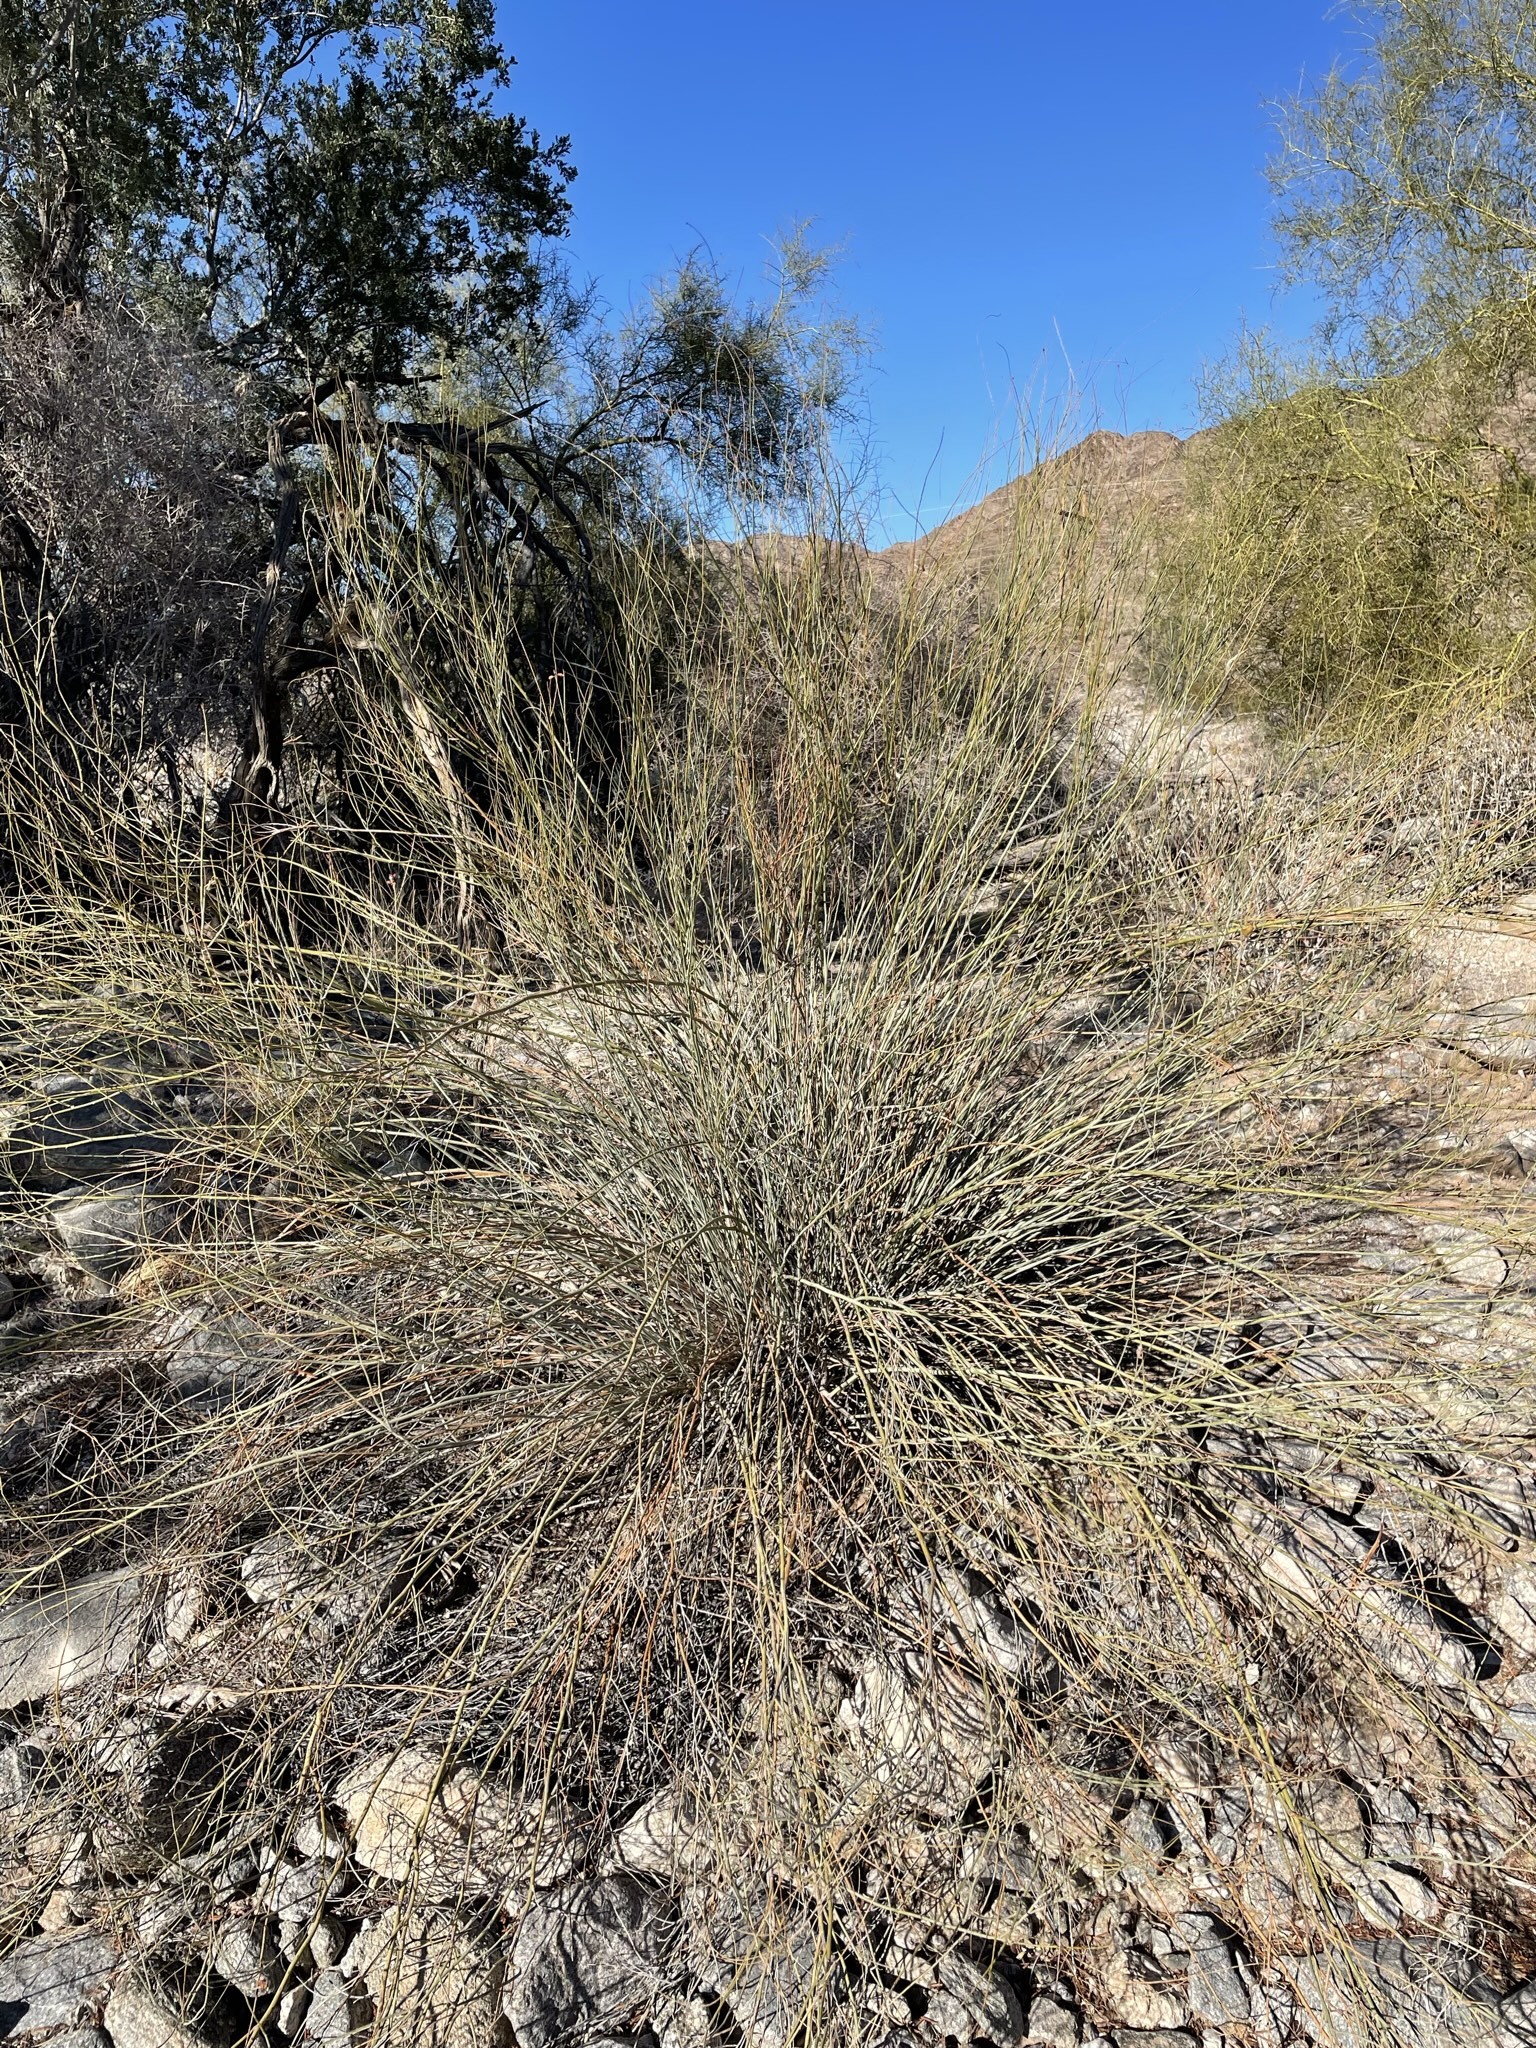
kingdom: Plantae
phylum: Tracheophyta
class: Magnoliopsida
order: Fabales
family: Fabaceae
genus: Hoffmannseggia
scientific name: Hoffmannseggia microphylla
